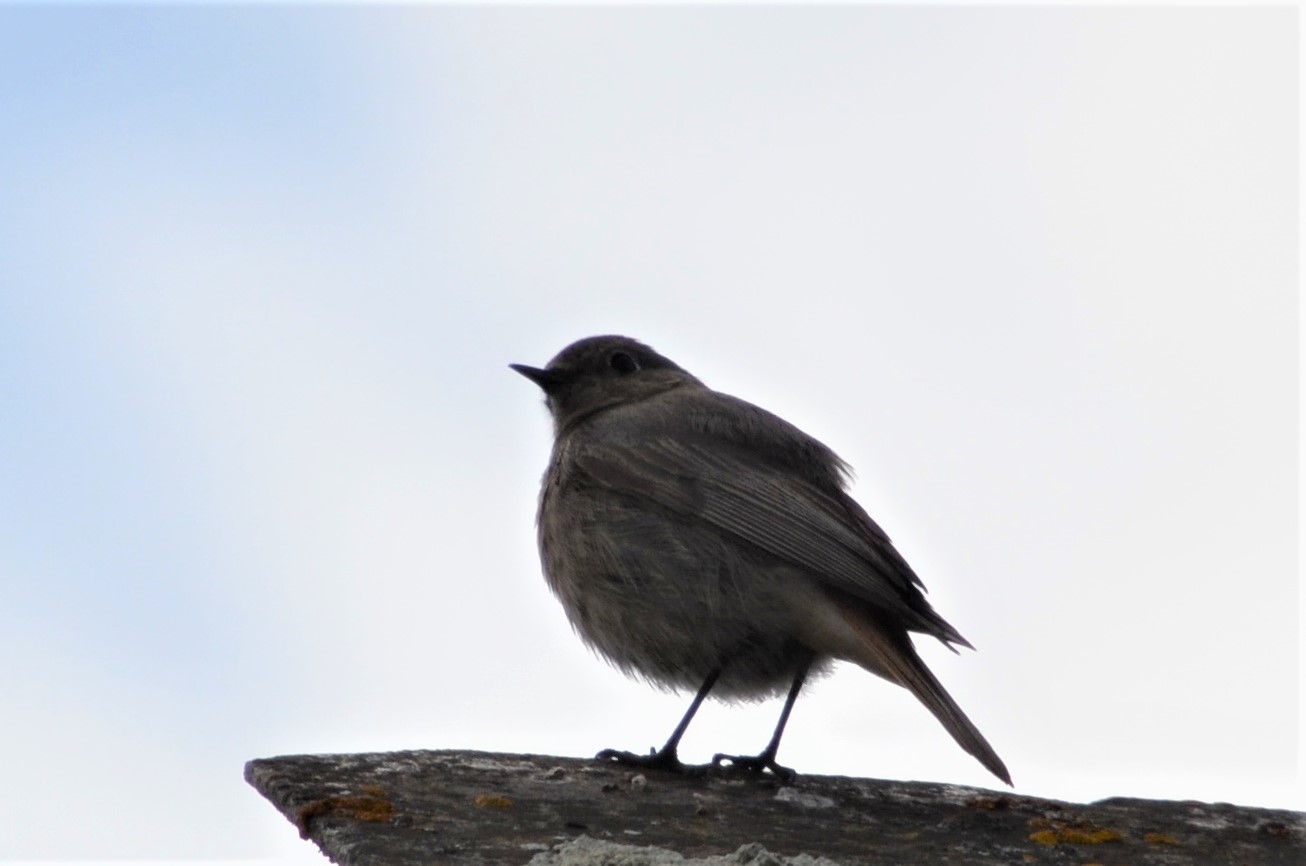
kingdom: Animalia
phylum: Chordata
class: Aves
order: Passeriformes
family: Muscicapidae
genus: Phoenicurus
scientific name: Phoenicurus ochruros
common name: Black redstart
